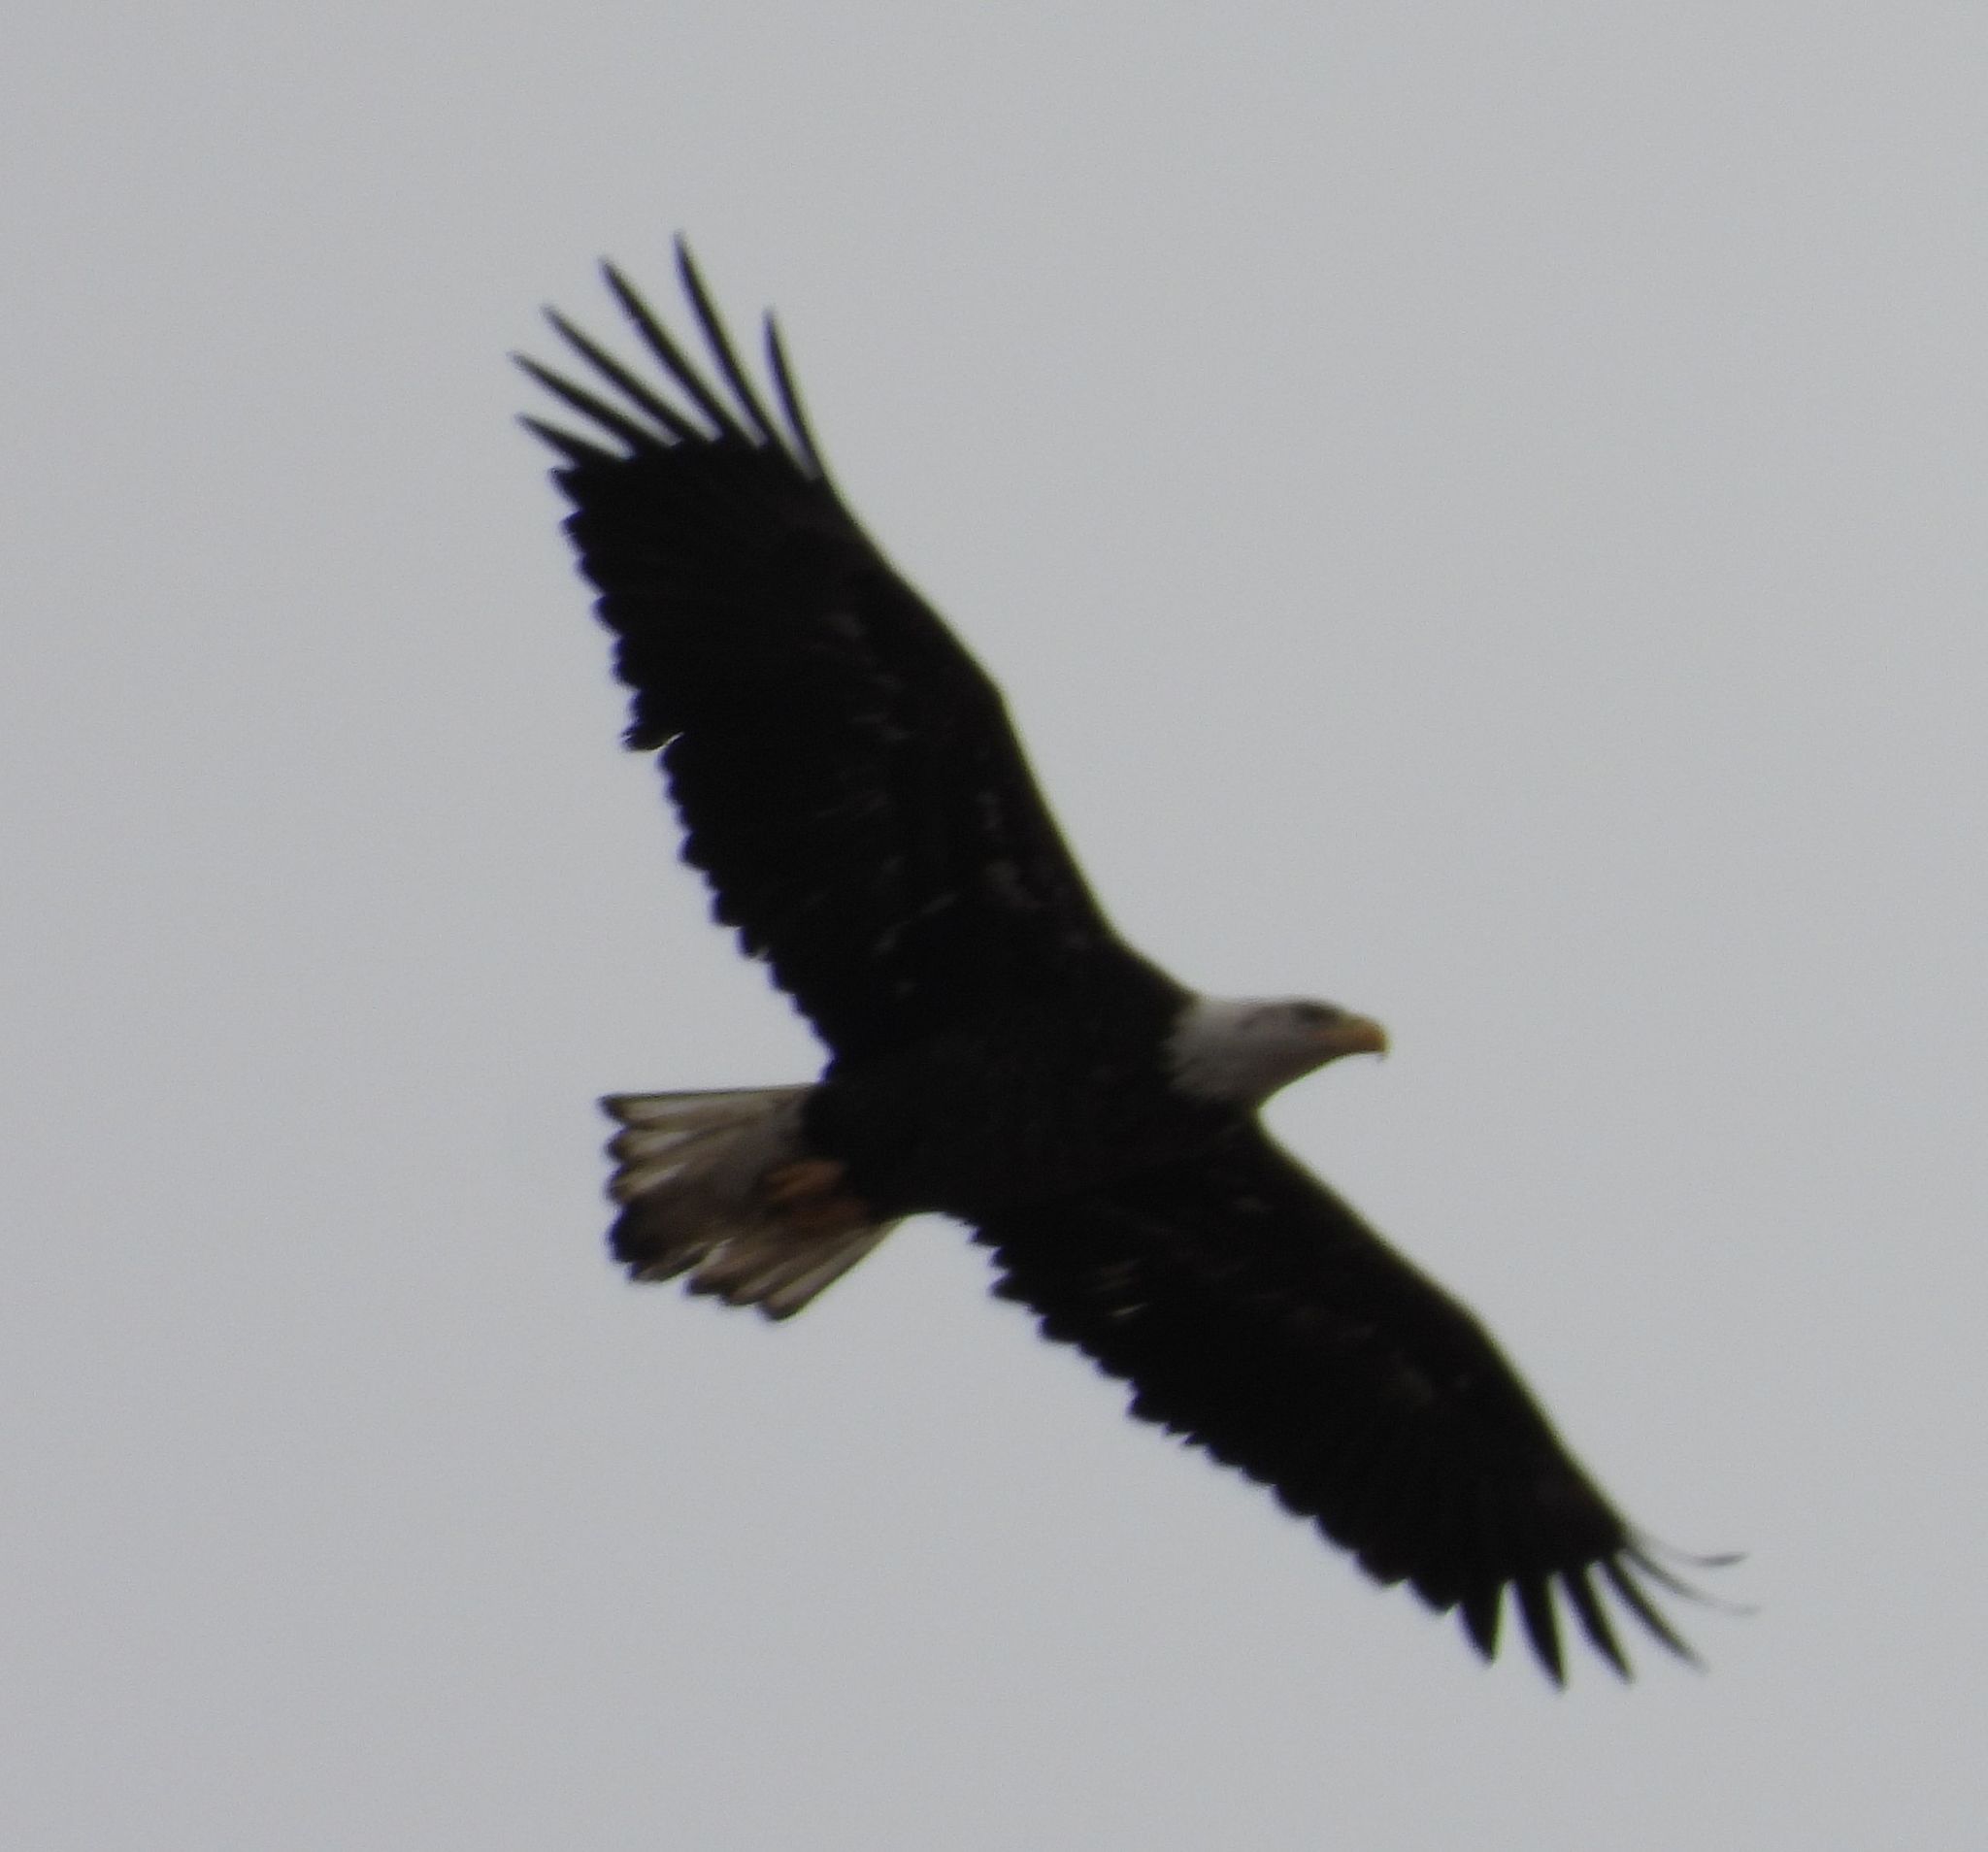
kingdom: Animalia
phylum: Chordata
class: Aves
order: Accipitriformes
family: Accipitridae
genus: Haliaeetus
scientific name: Haliaeetus leucocephalus
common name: Bald eagle
